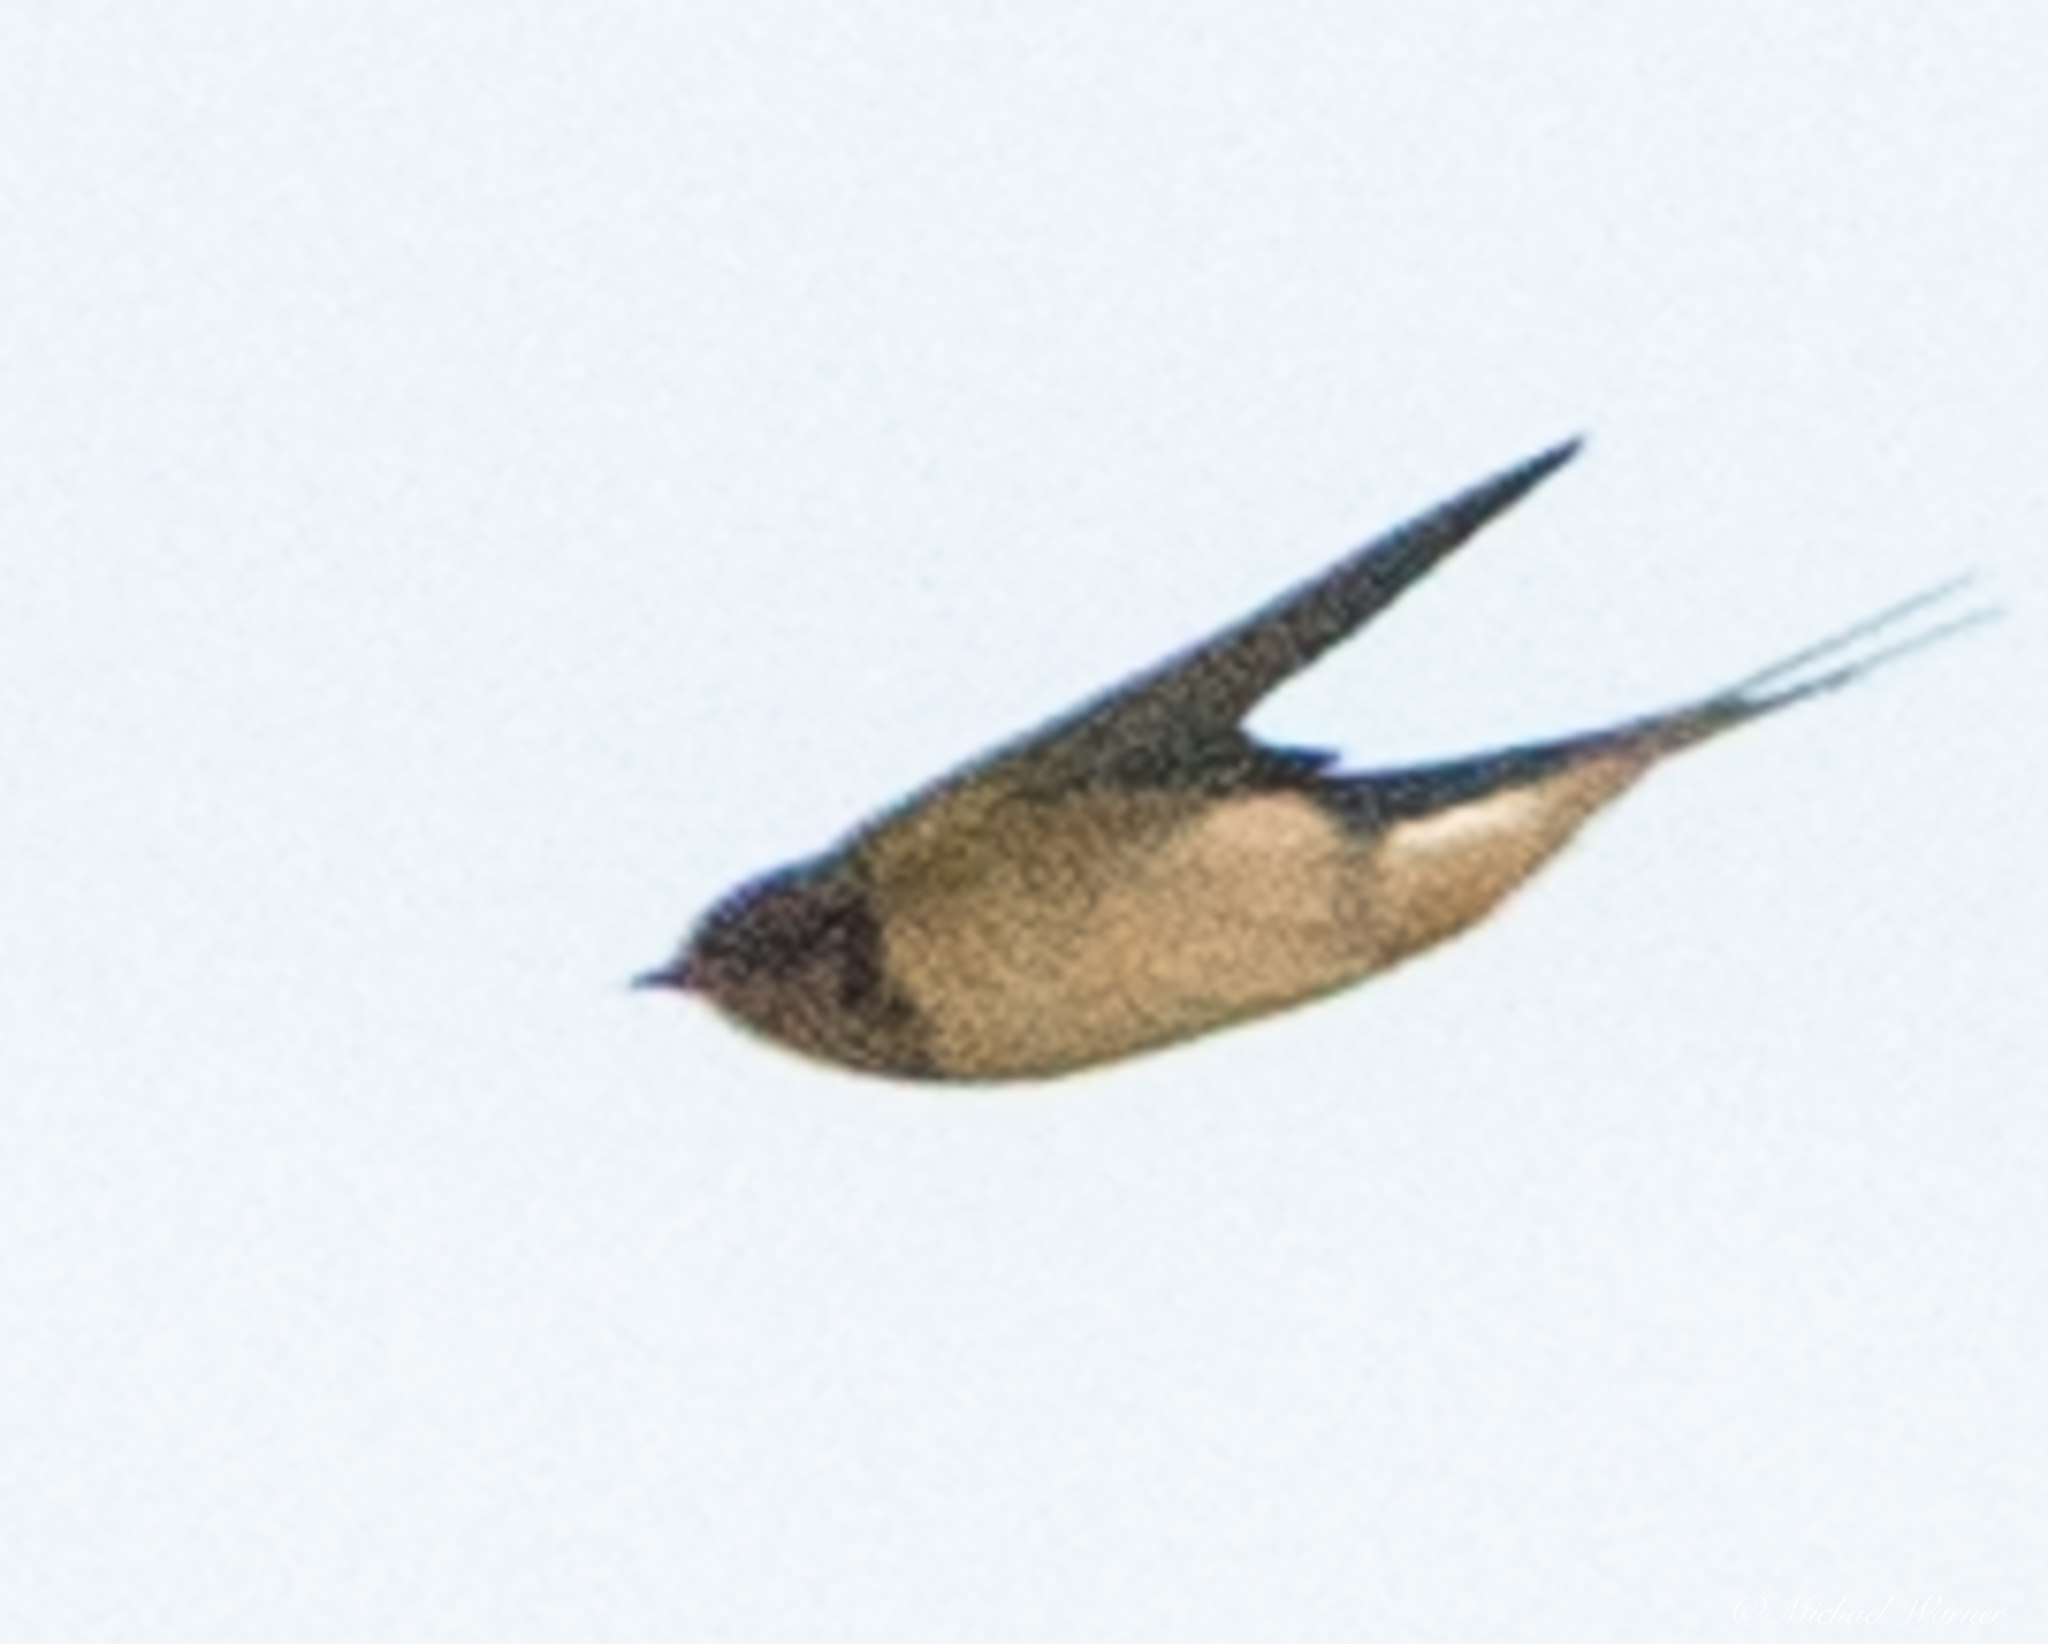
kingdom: Animalia
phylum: Chordata
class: Aves
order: Passeriformes
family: Hirundinidae
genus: Hirundo
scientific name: Hirundo rustica
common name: Barn swallow
